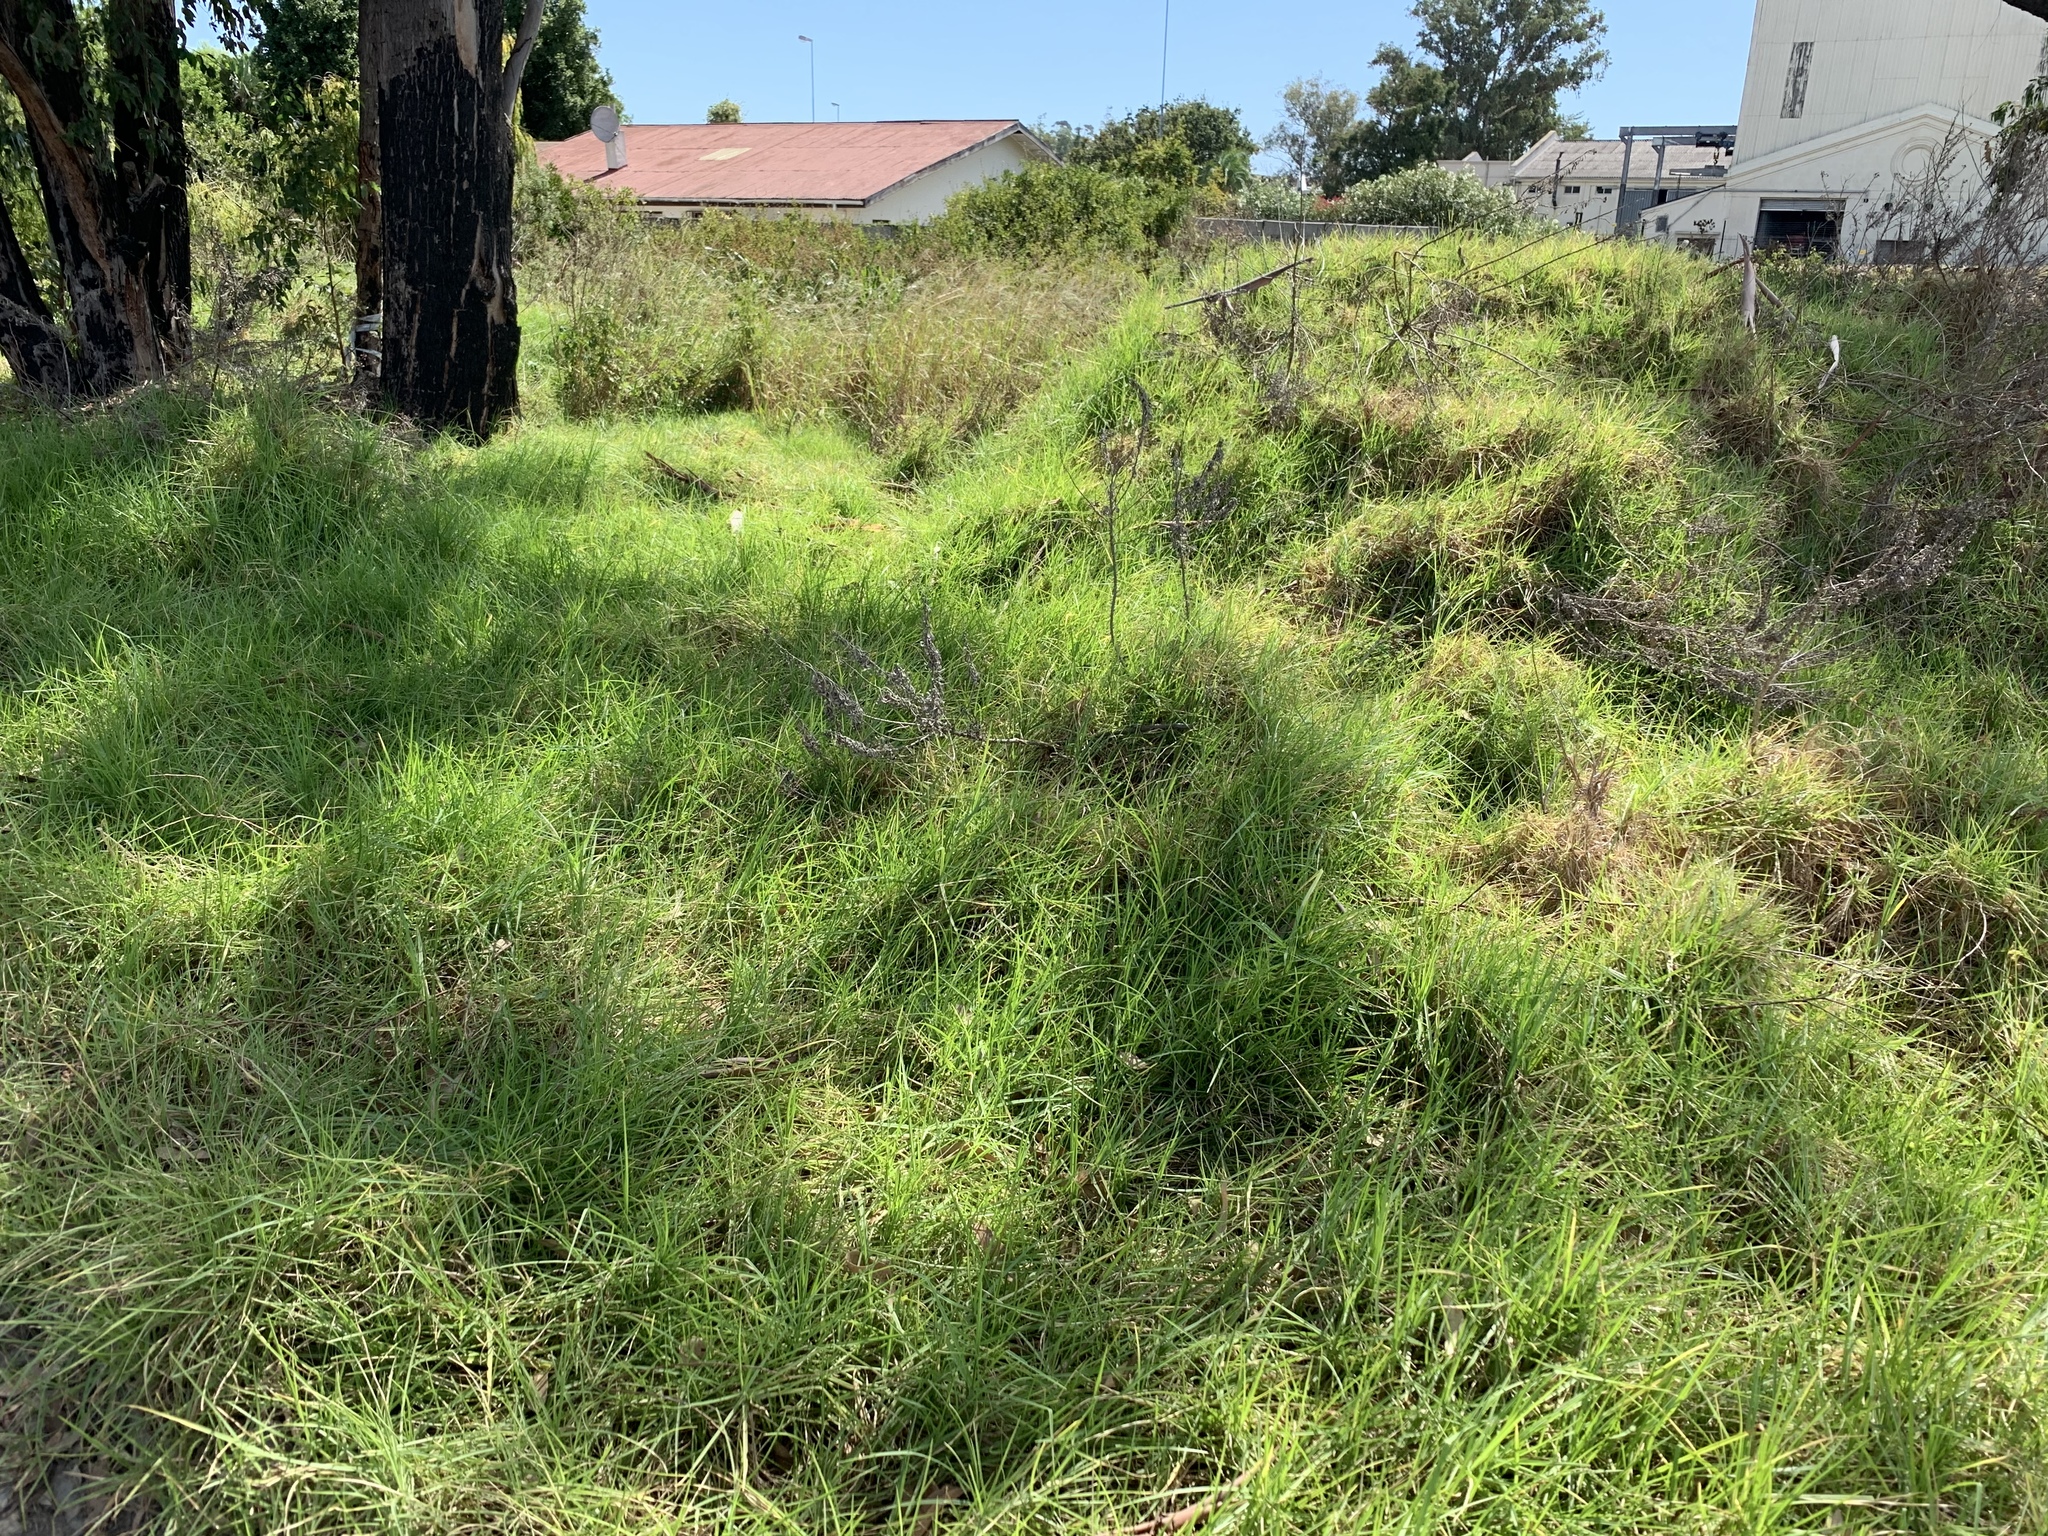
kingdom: Plantae
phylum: Tracheophyta
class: Liliopsida
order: Poales
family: Poaceae
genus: Cenchrus
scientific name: Cenchrus clandestinus
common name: Kikuyugrass
